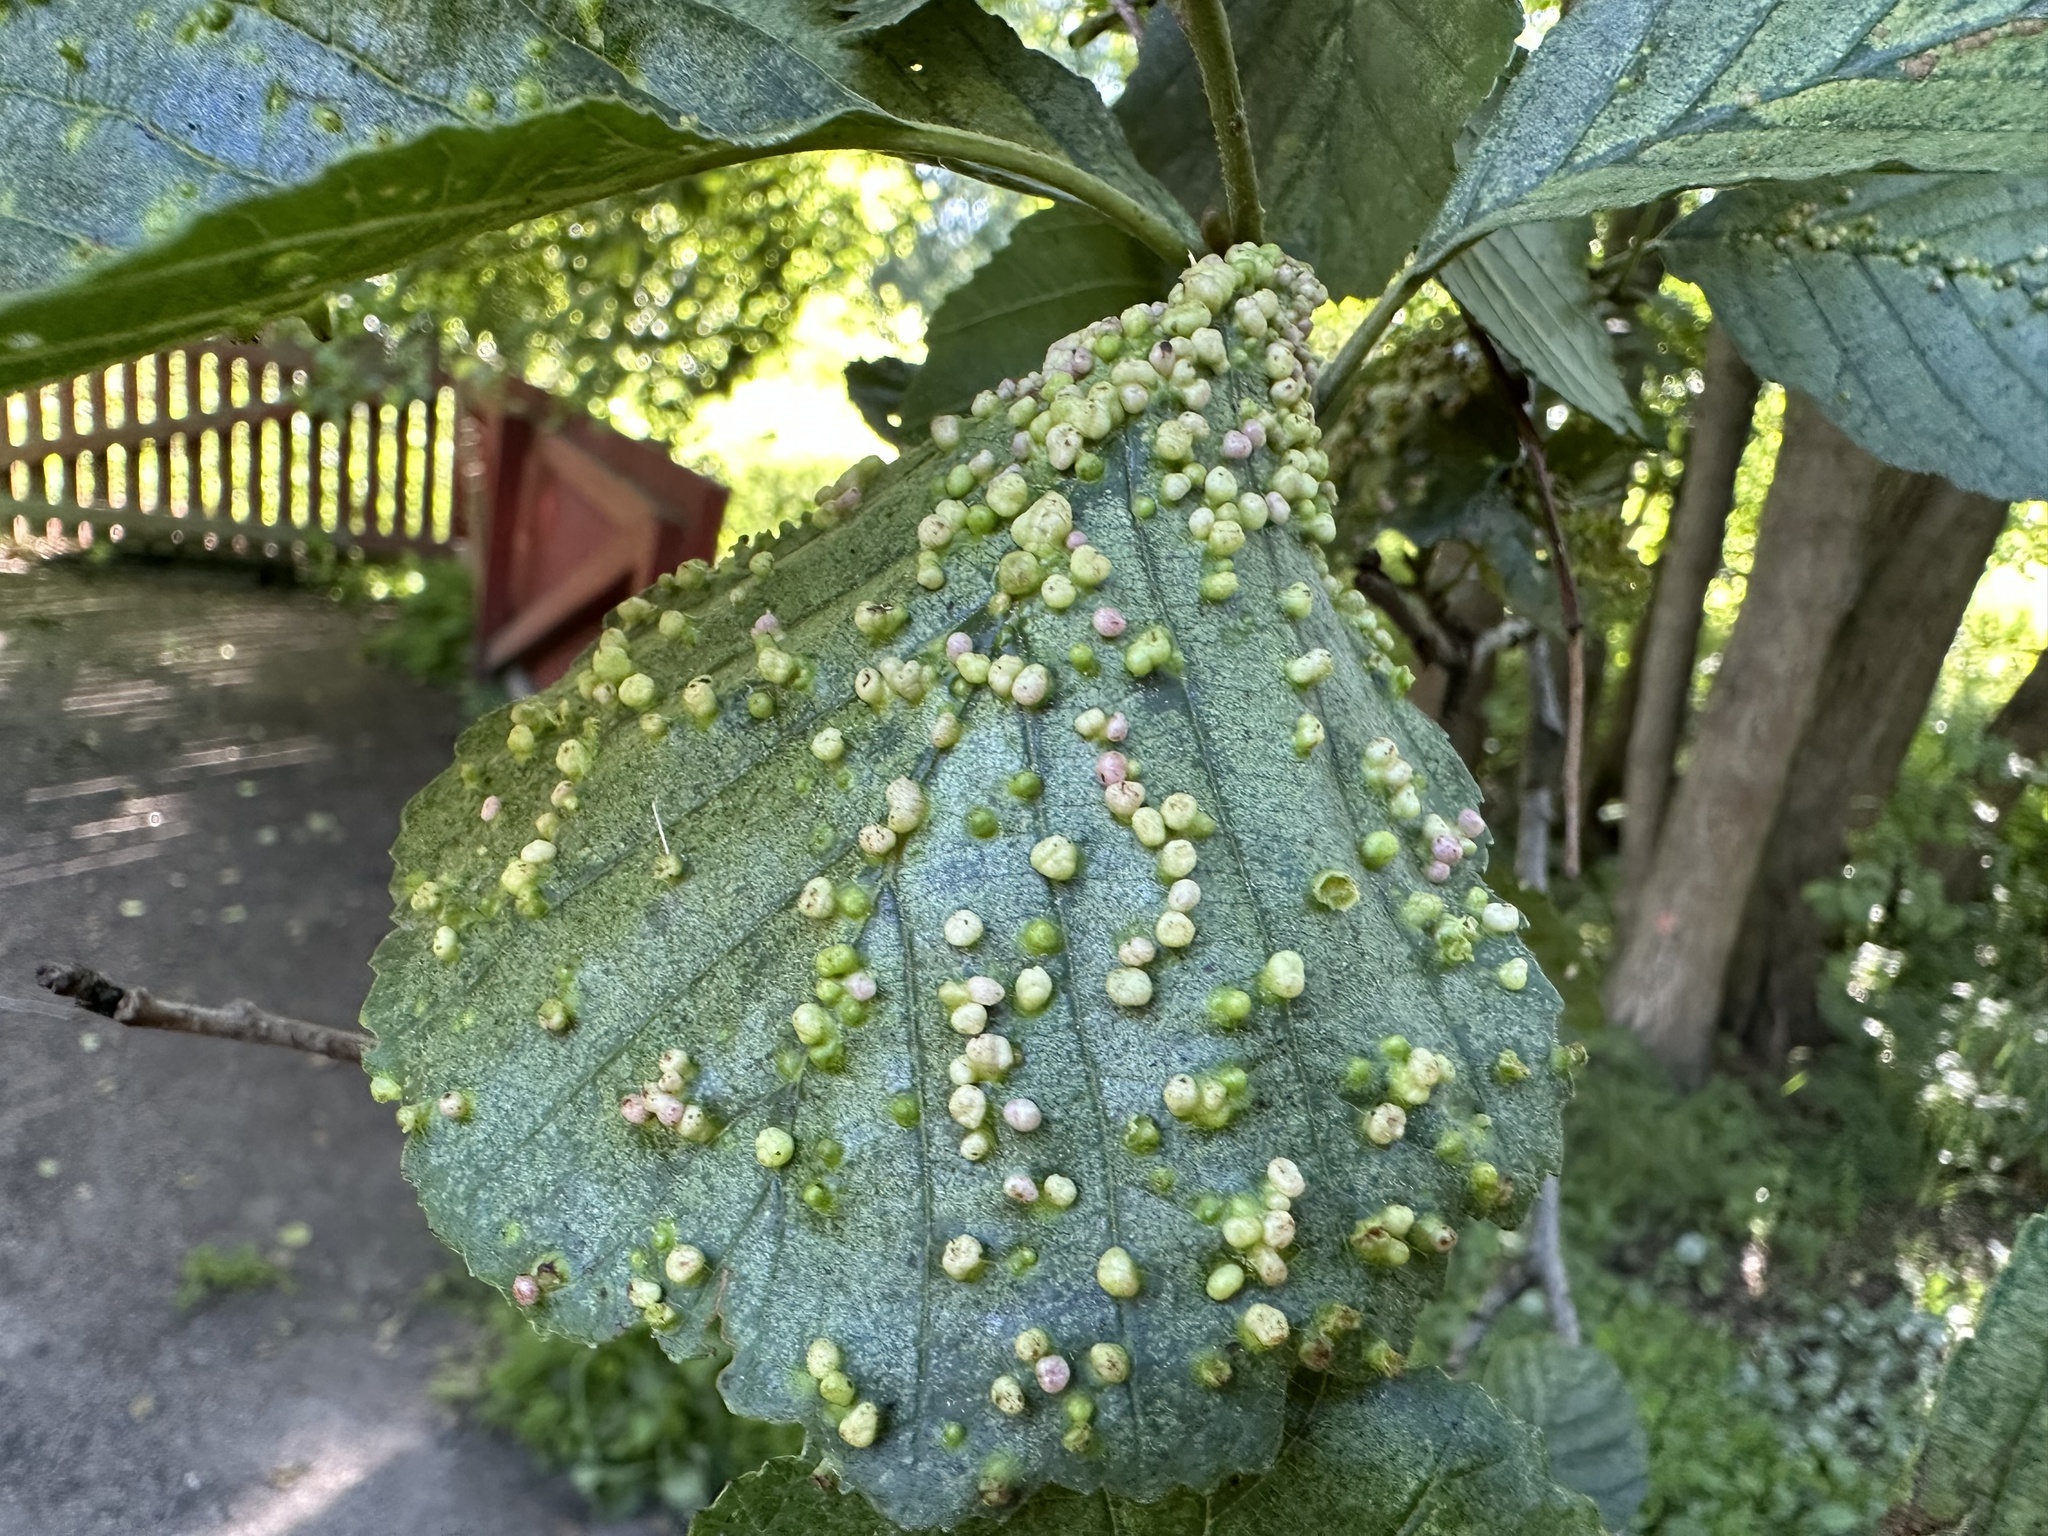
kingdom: Animalia
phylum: Arthropoda
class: Arachnida
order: Trombidiformes
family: Eriophyidae
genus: Eriophyes
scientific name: Eriophyes laevis
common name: Alder leaf gall mite
